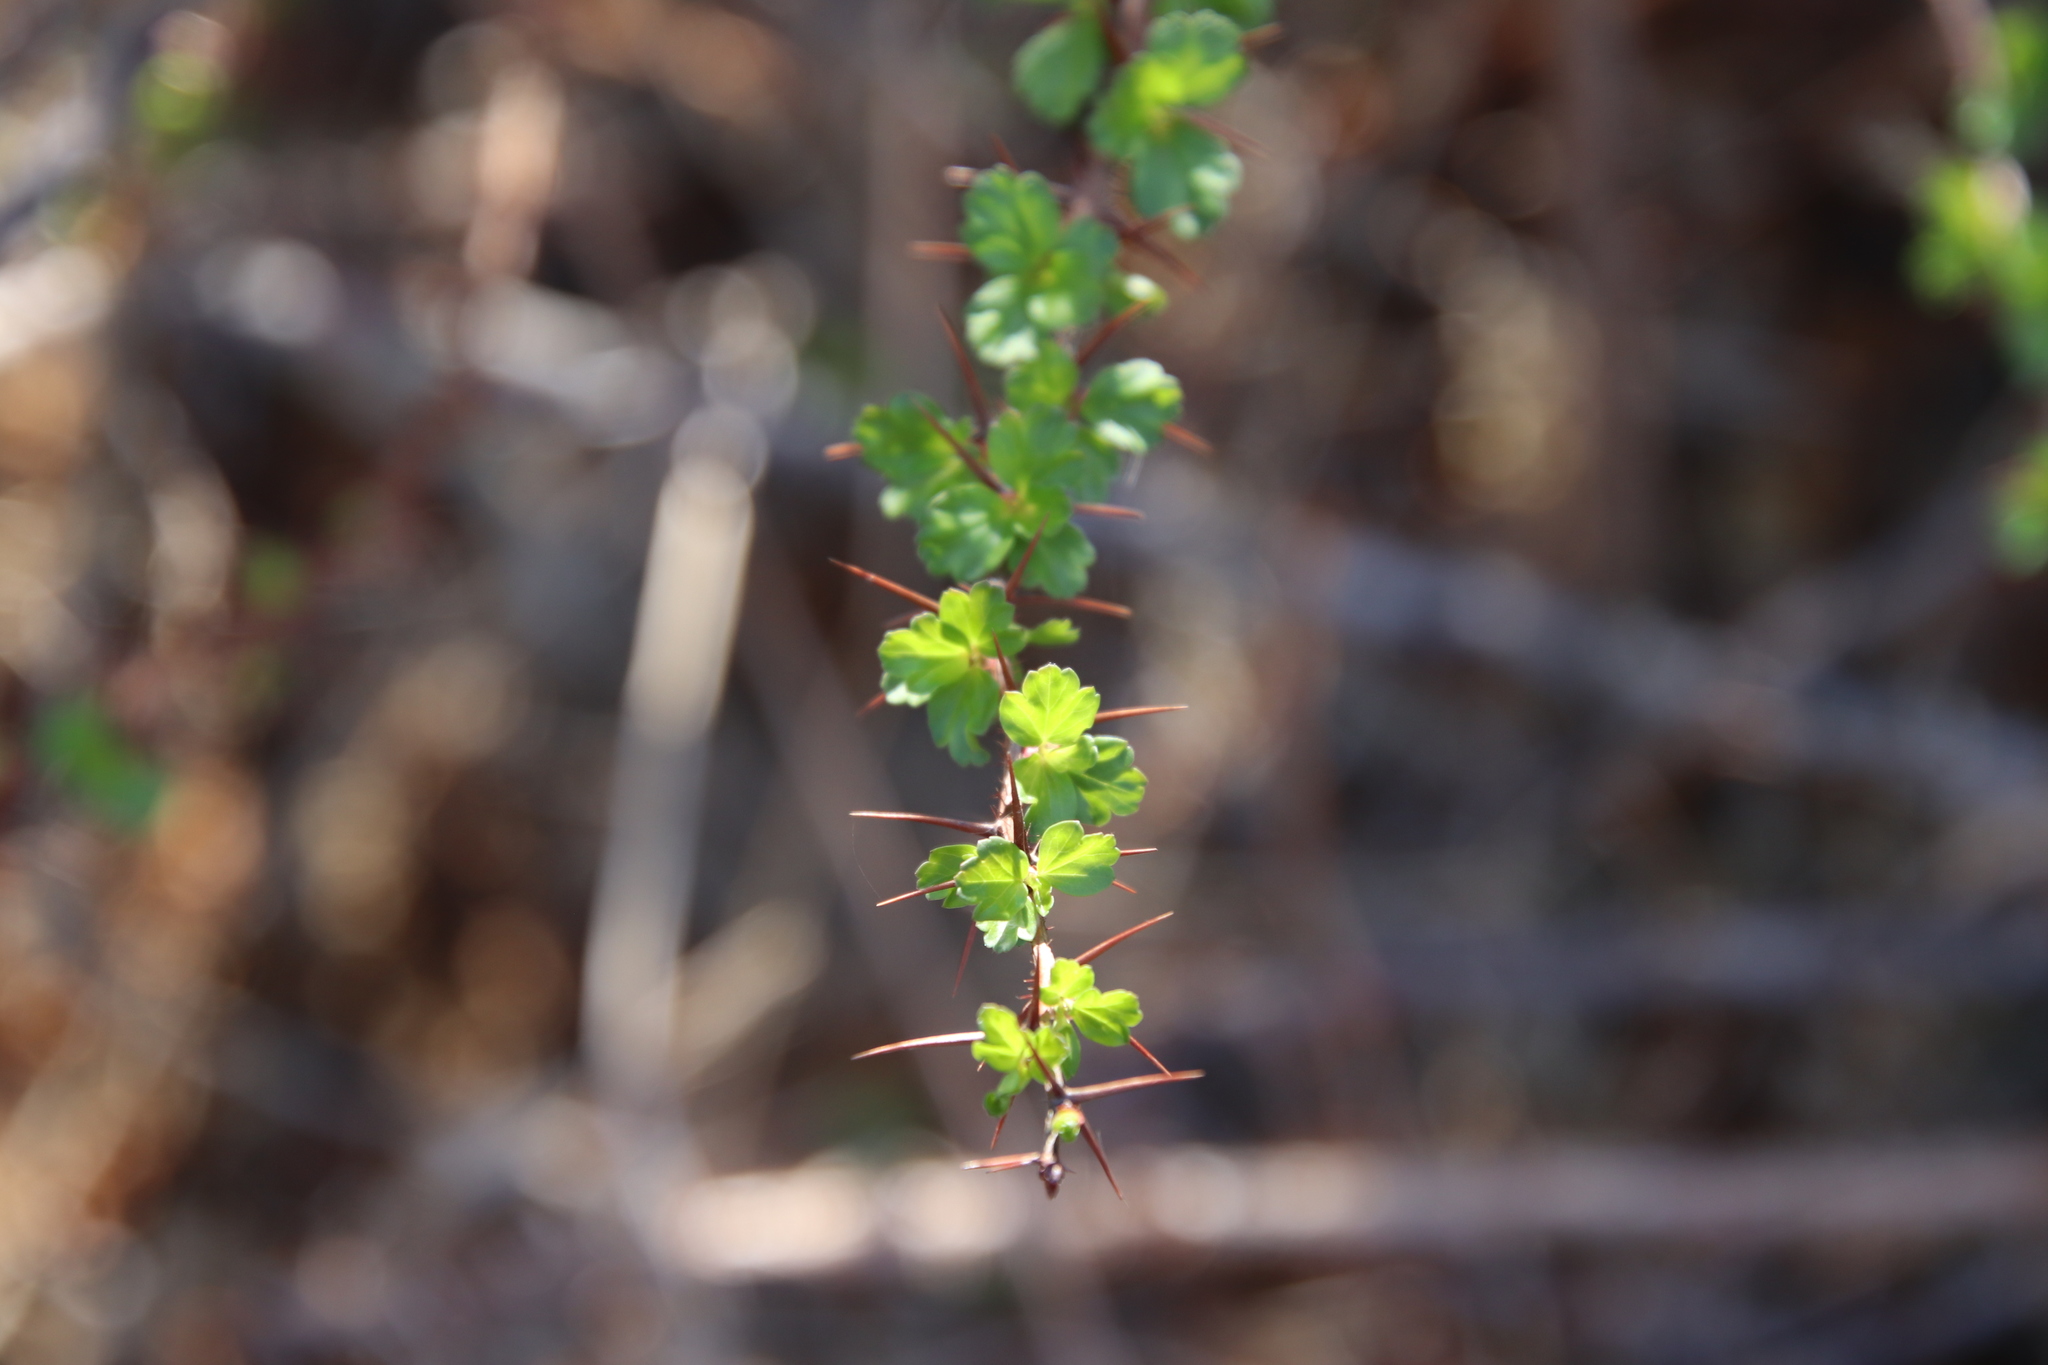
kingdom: Plantae
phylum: Tracheophyta
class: Magnoliopsida
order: Saxifragales
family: Grossulariaceae
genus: Ribes
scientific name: Ribes speciosum
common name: Fuchsia-flower gooseberry
